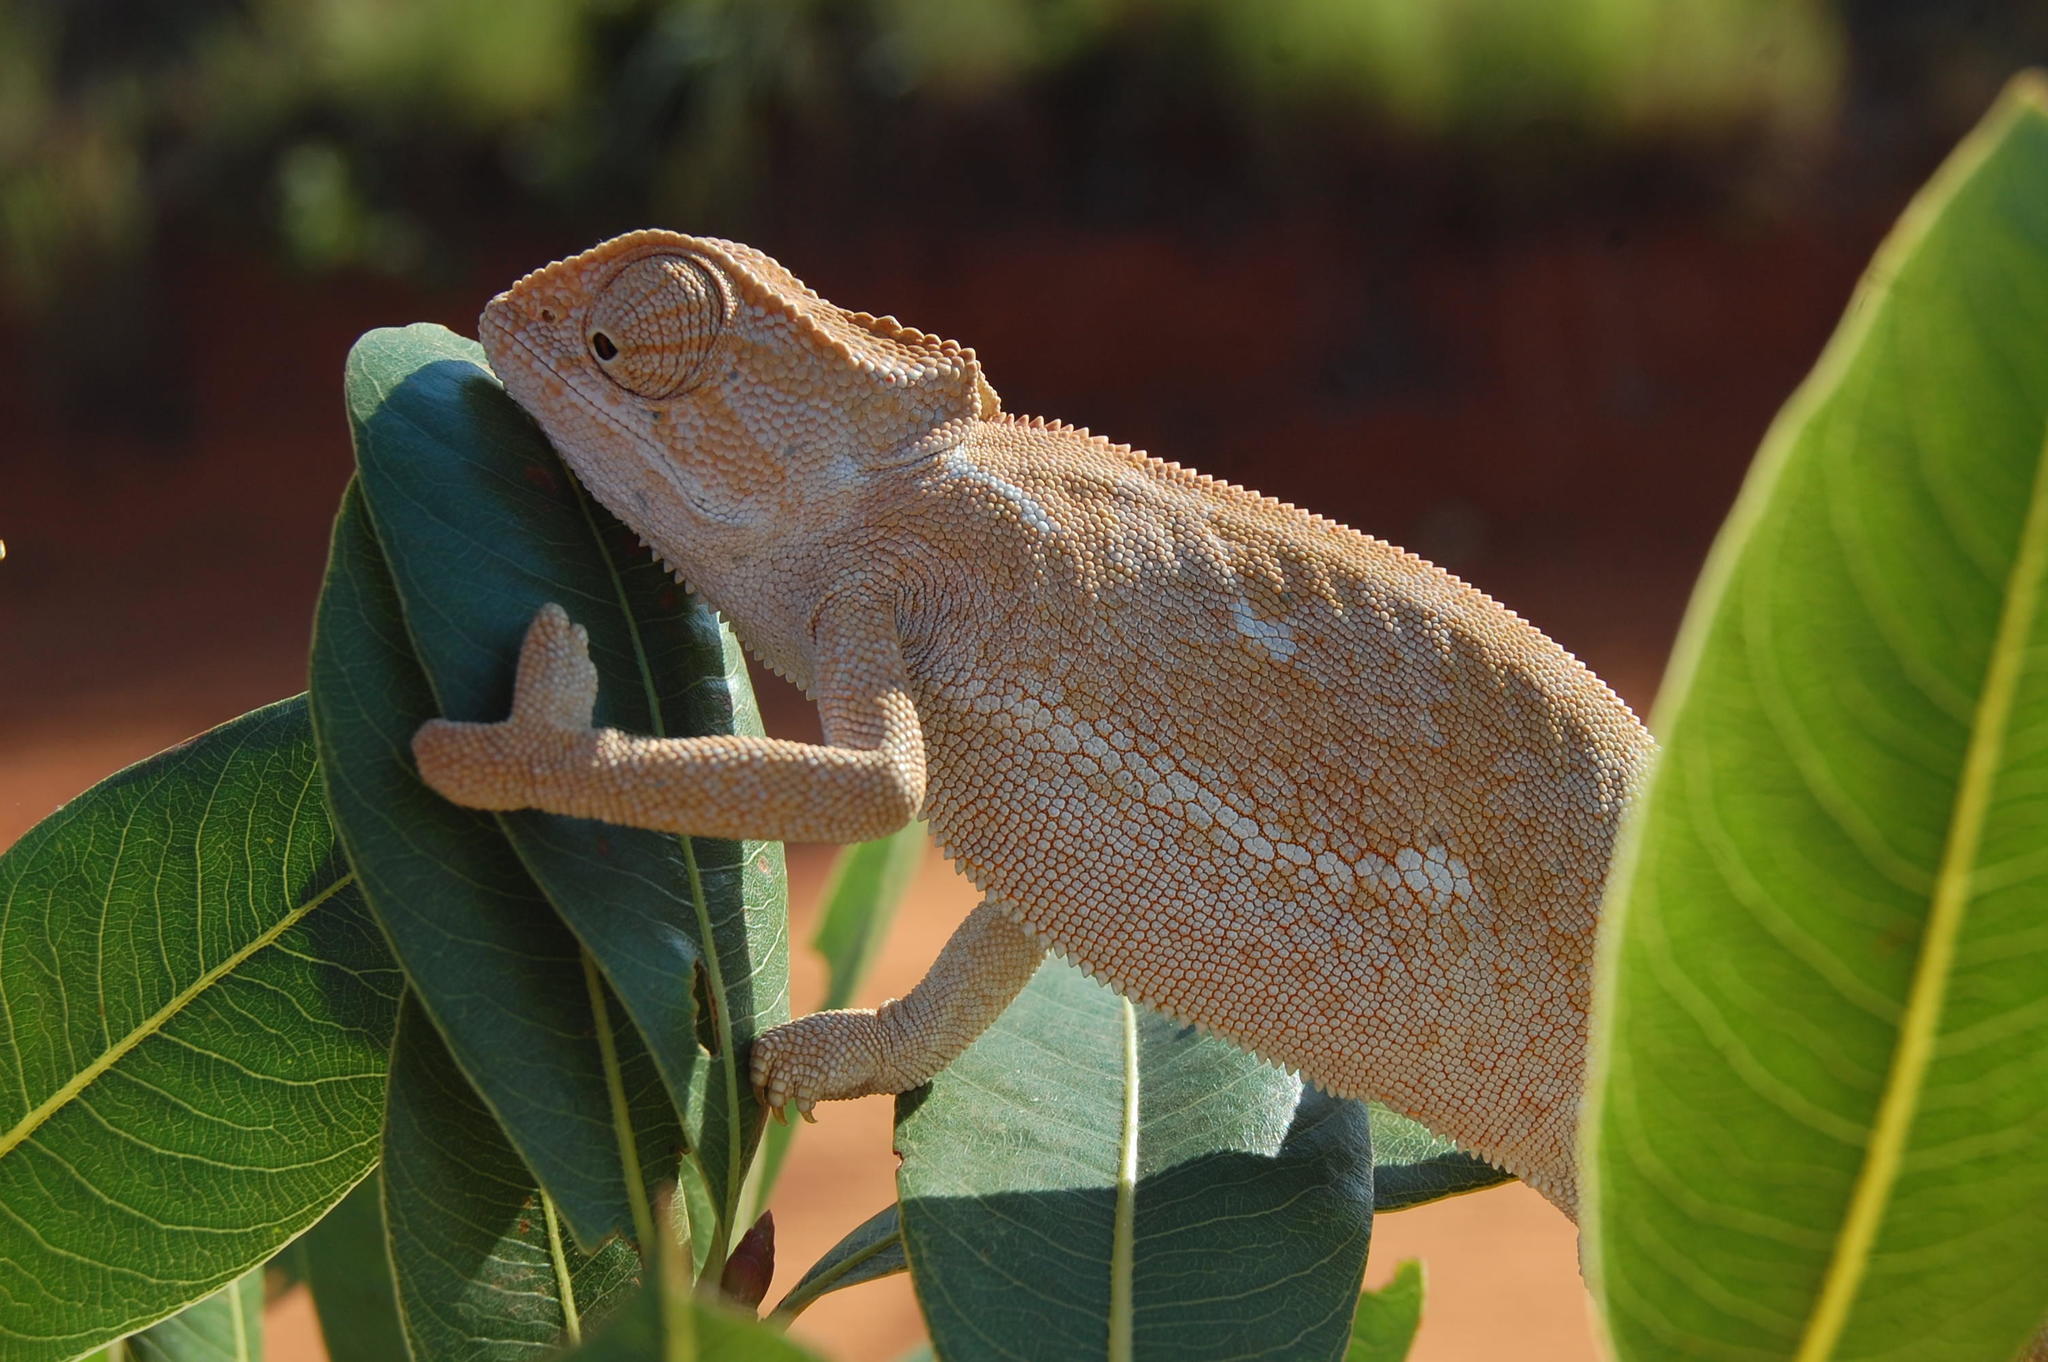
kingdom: Animalia
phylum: Chordata
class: Squamata
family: Chamaeleonidae
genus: Chamaeleo
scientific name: Chamaeleo dilepis
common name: Flapneck chameleon
